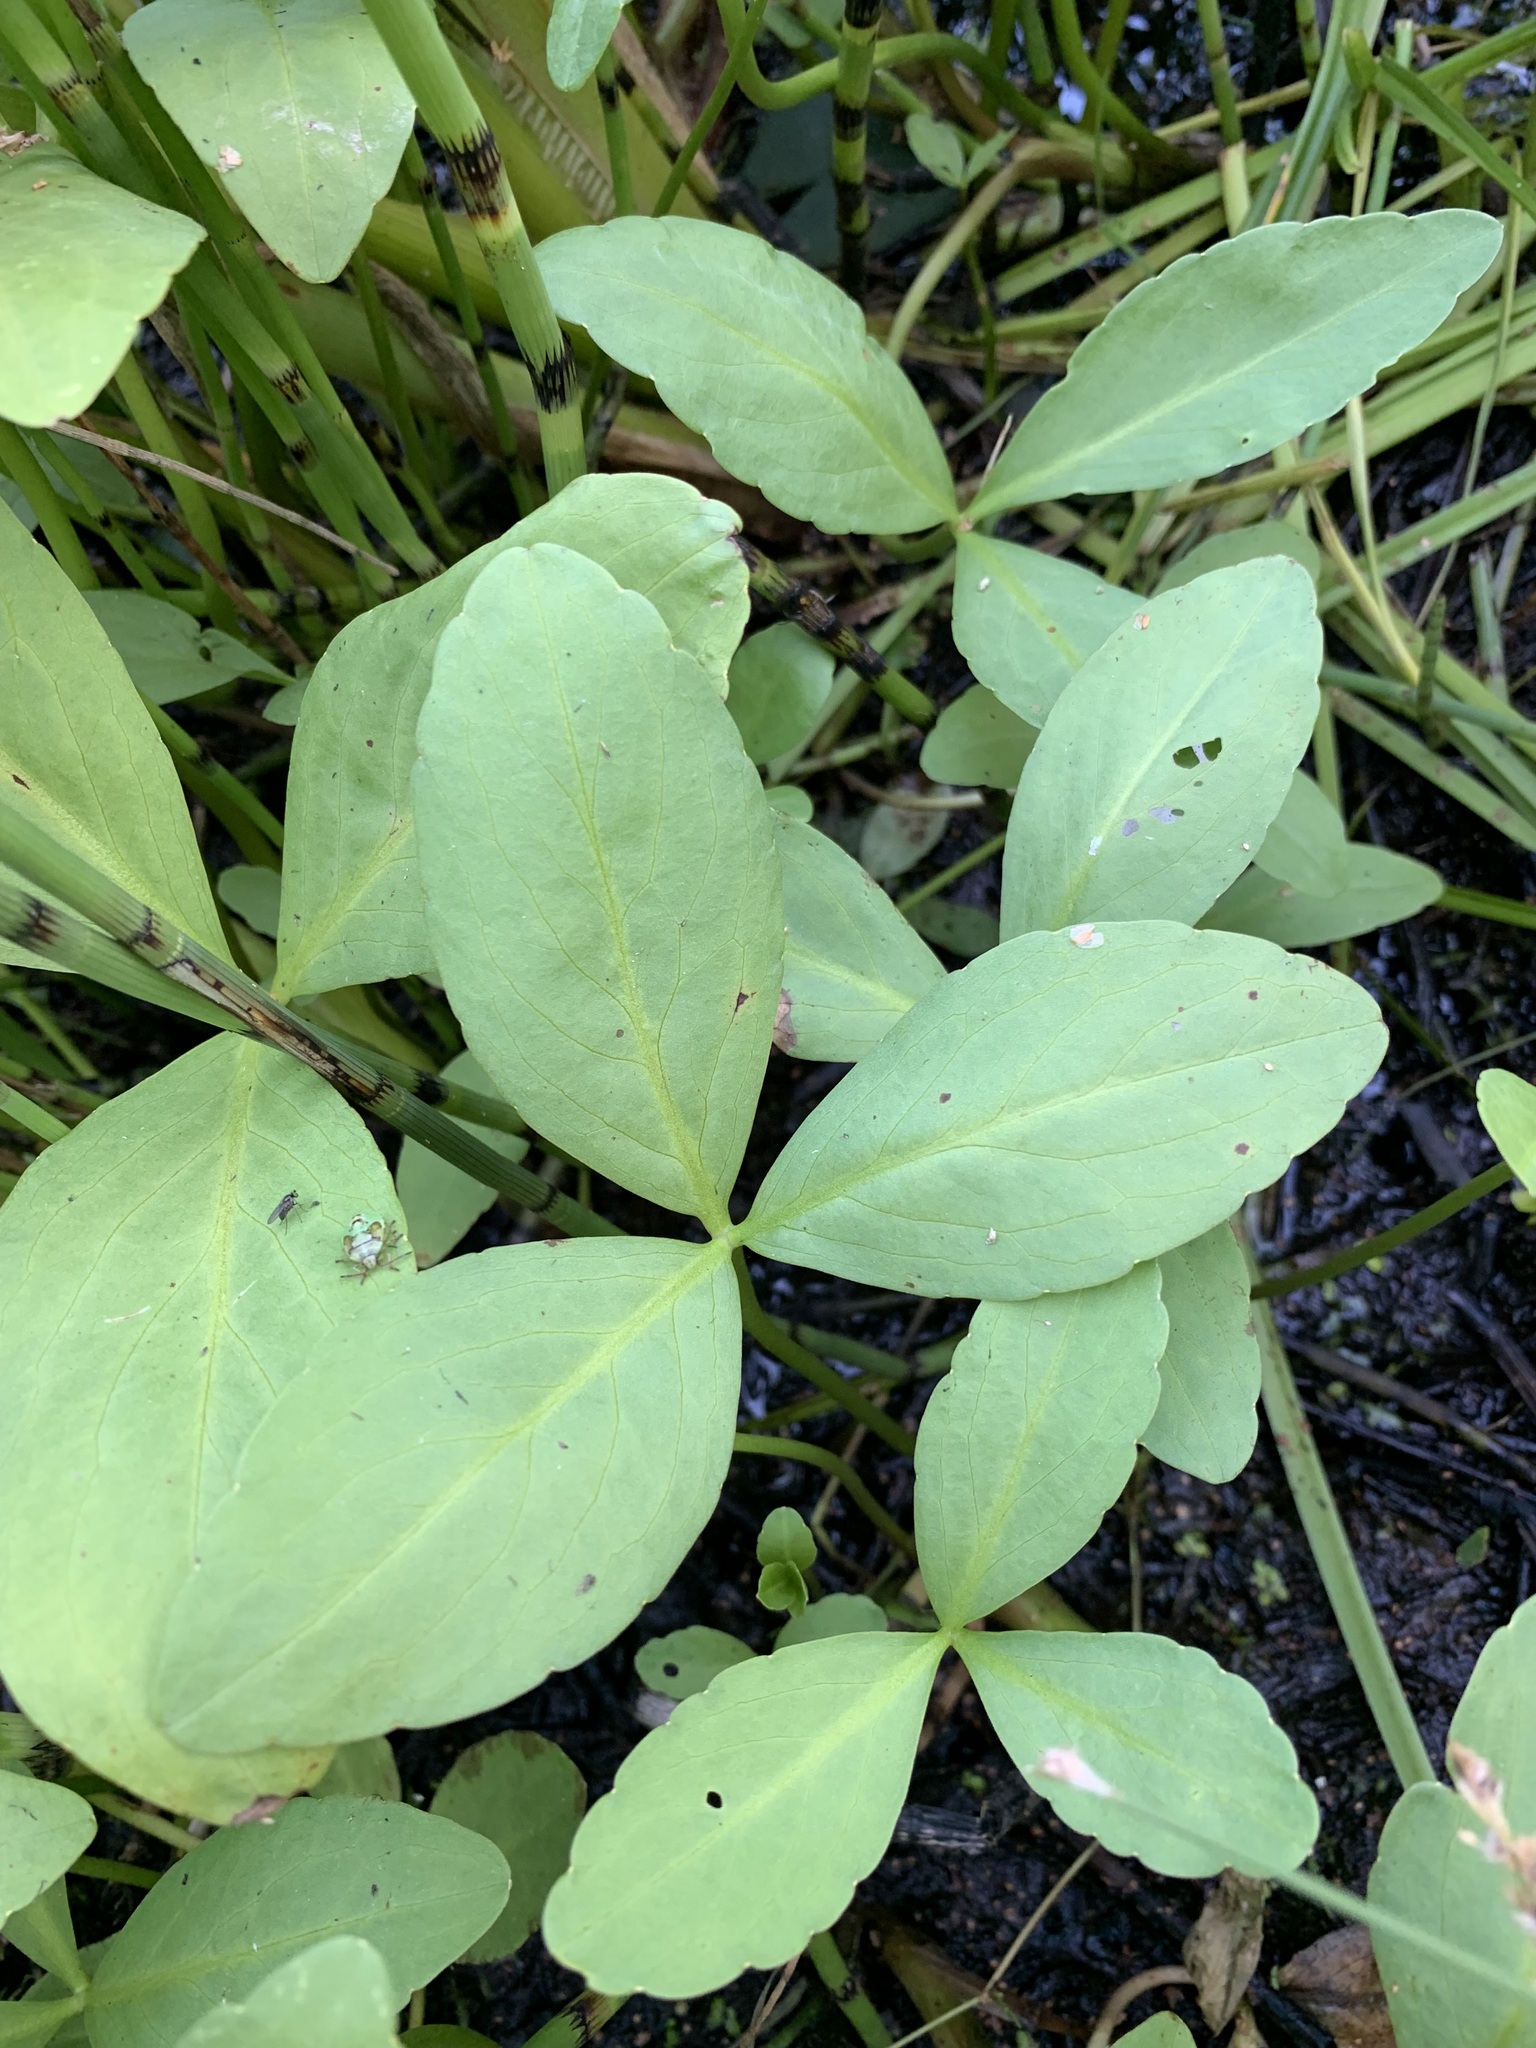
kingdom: Plantae
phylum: Tracheophyta
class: Magnoliopsida
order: Asterales
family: Menyanthaceae
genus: Menyanthes
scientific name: Menyanthes trifoliata
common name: Bogbean
